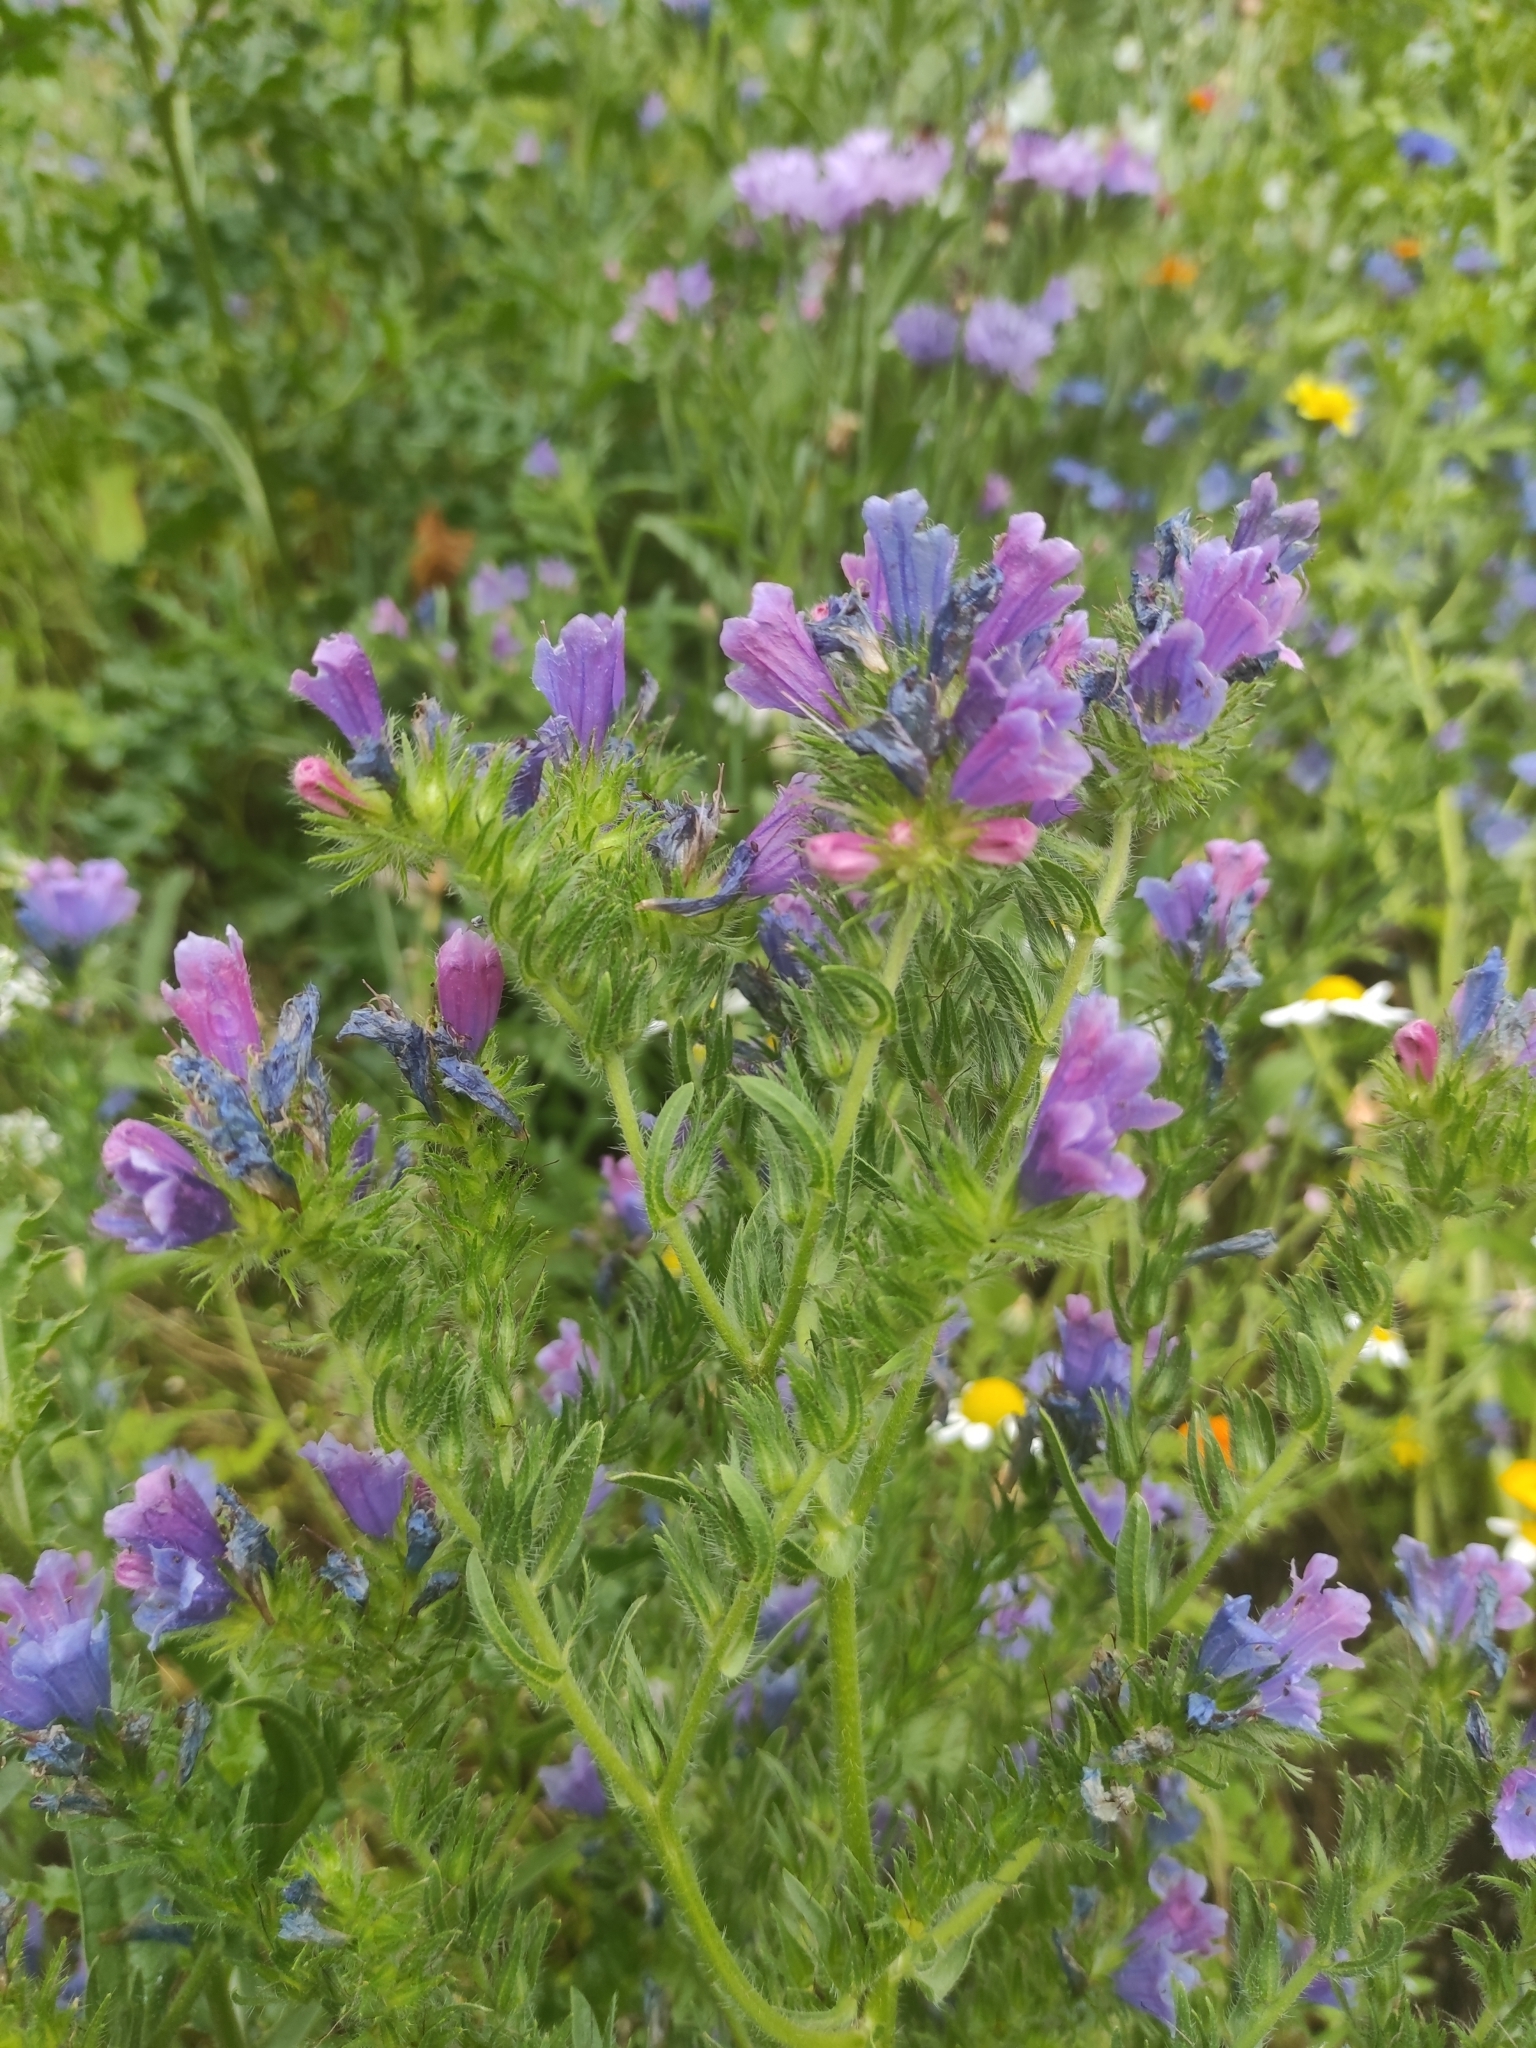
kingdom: Plantae
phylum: Tracheophyta
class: Magnoliopsida
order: Boraginales
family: Boraginaceae
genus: Echium
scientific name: Echium vulgare
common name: Common viper's bugloss
